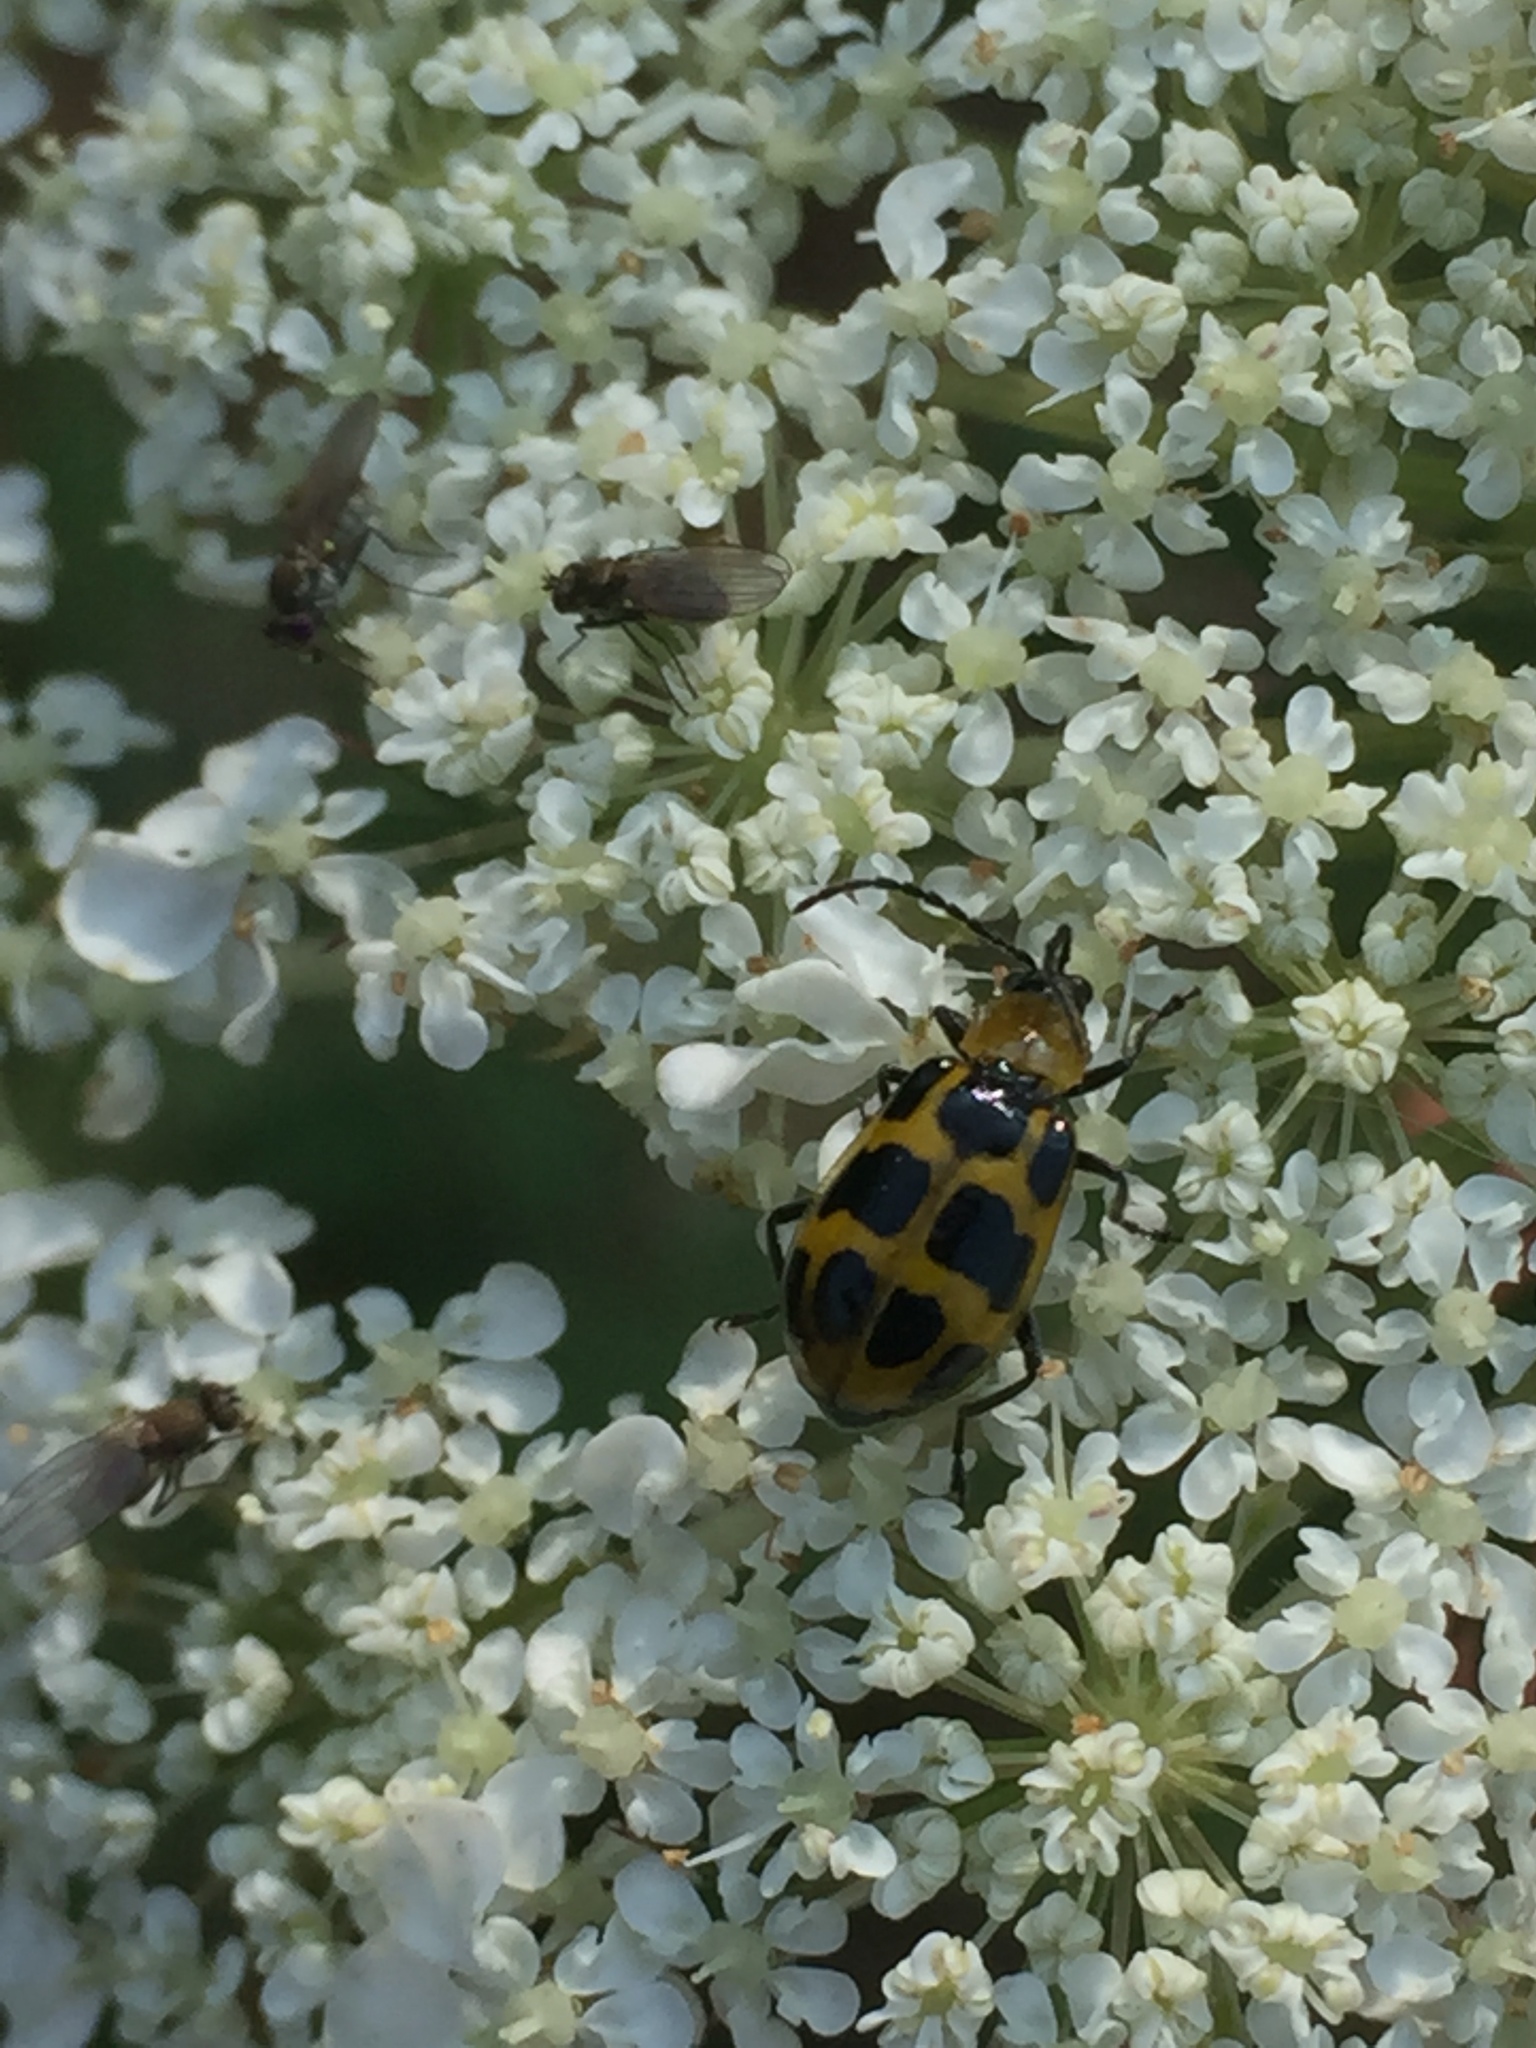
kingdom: Animalia
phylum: Arthropoda
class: Insecta
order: Coleoptera
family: Chrysomelidae
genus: Diabrotica
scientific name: Diabrotica undecimpunctata
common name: Spotted cucumber beetle
